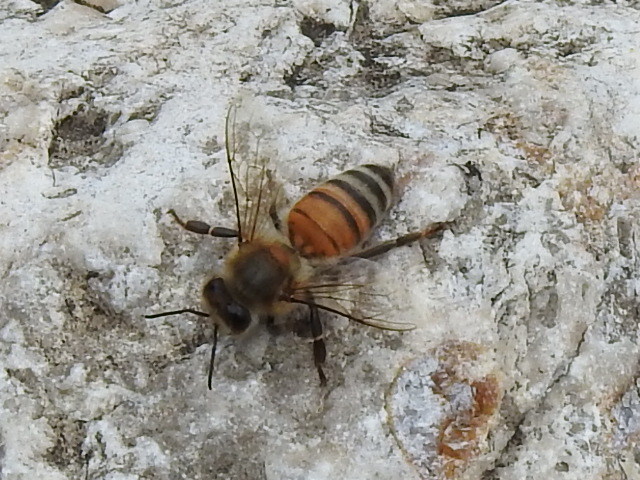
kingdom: Animalia
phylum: Arthropoda
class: Insecta
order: Hymenoptera
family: Apidae
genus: Apis
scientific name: Apis mellifera
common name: Honey bee
